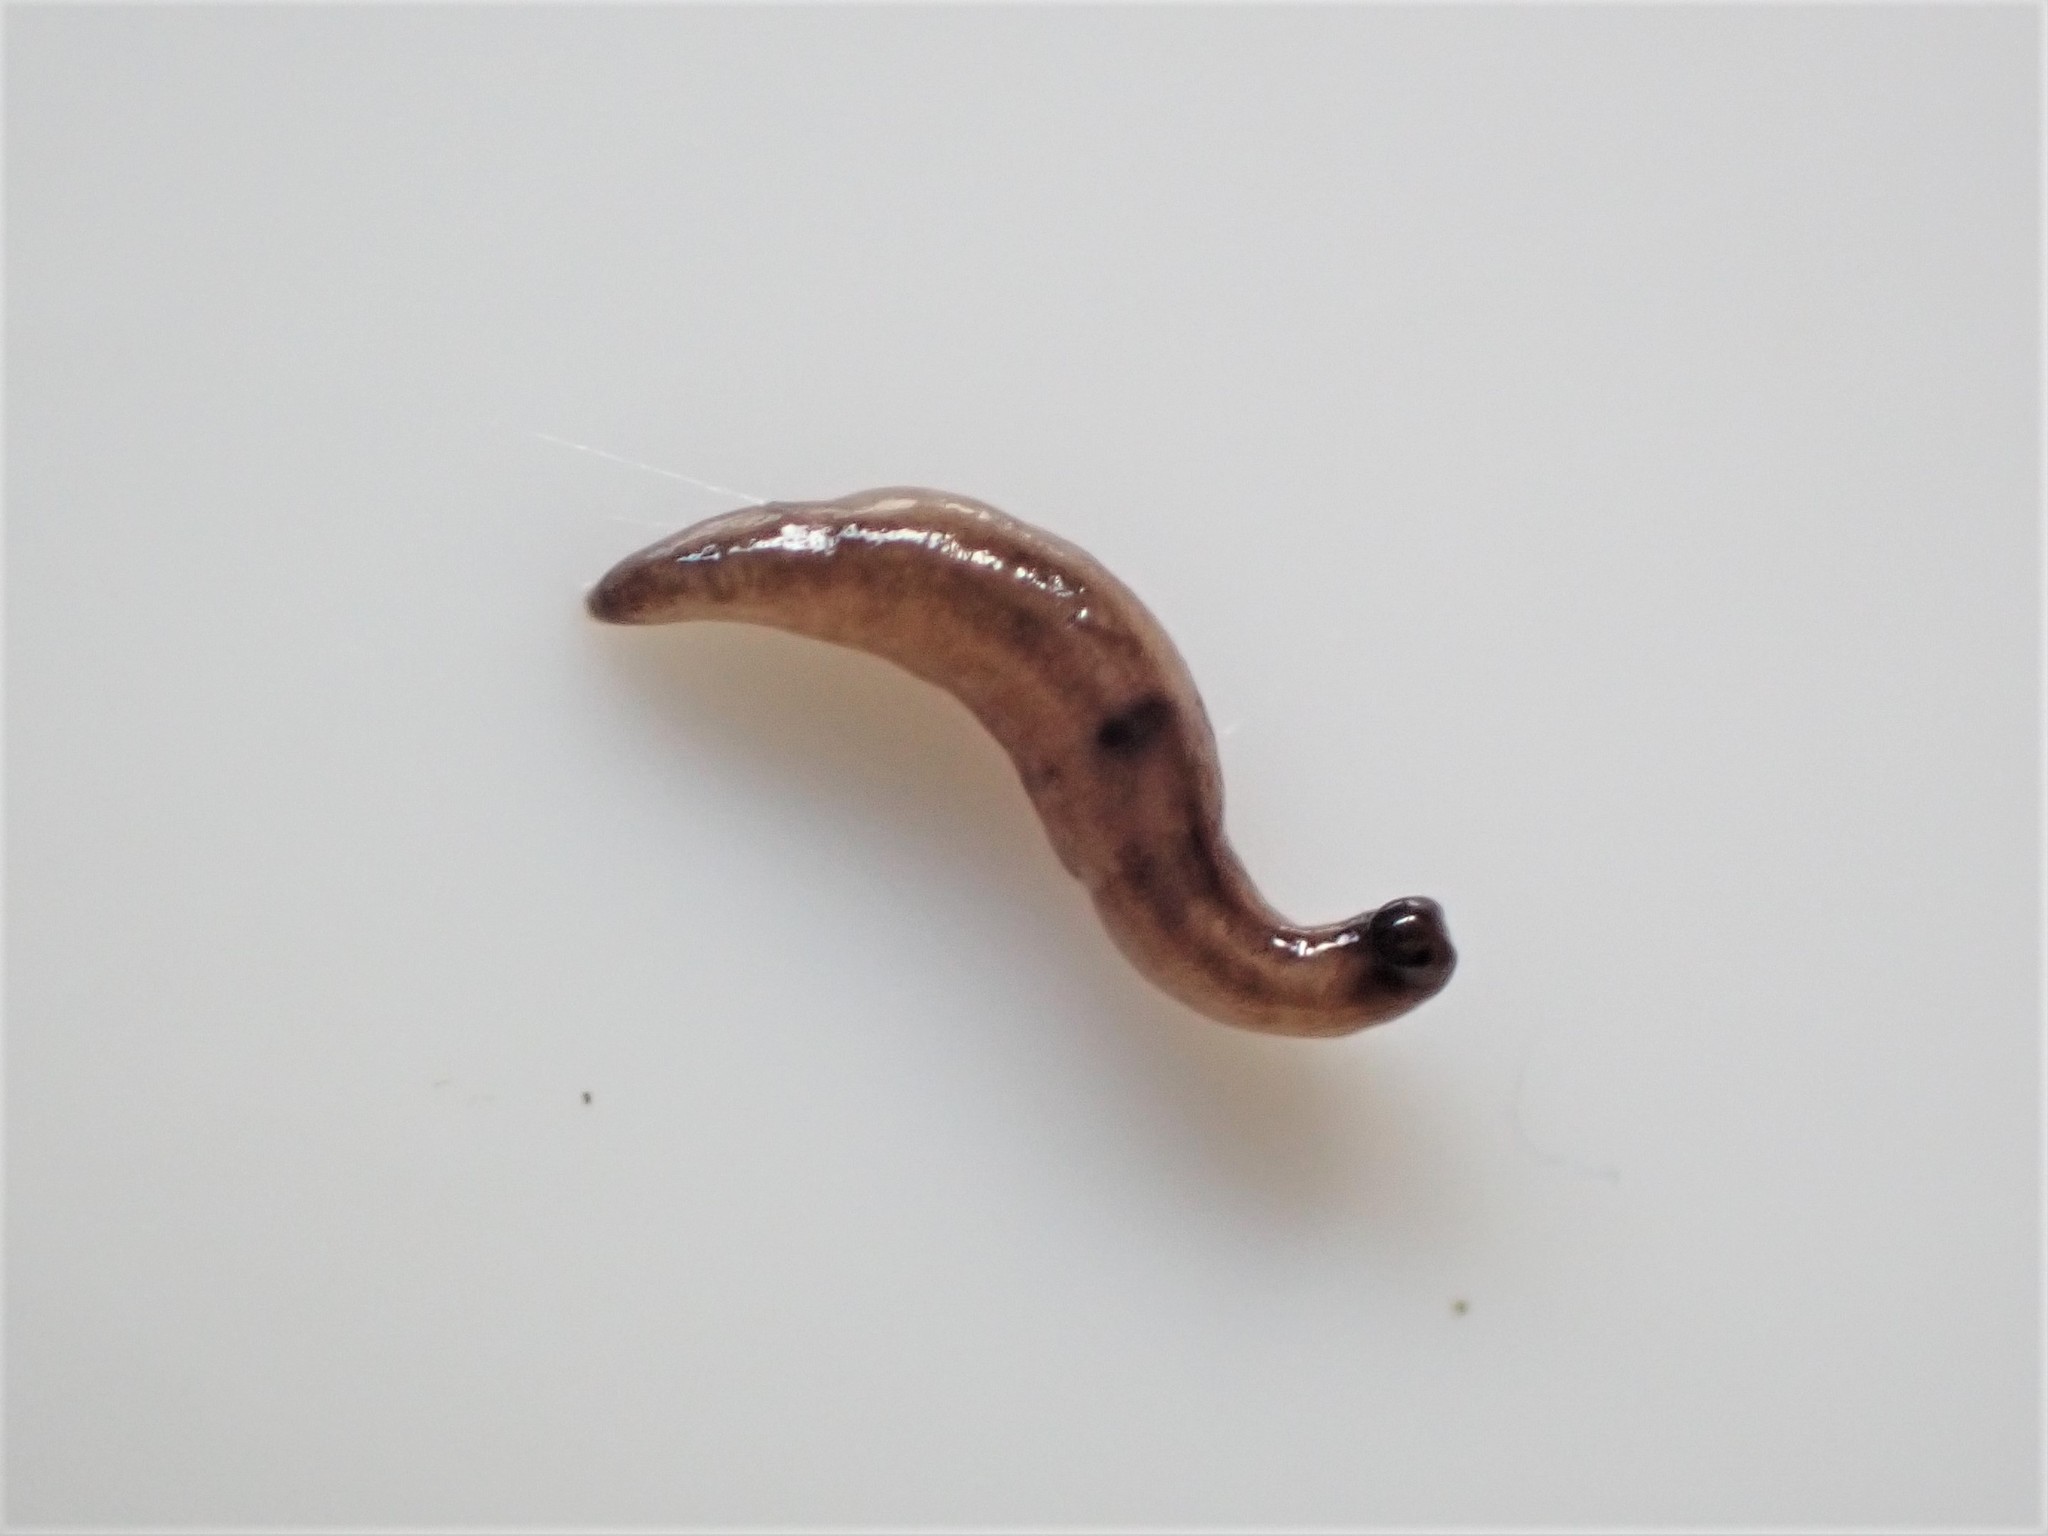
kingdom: Animalia
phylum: Platyhelminthes
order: Tricladida
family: Geoplanidae
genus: Rhynchodemus
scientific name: Rhynchodemus sylvaticus
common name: A flatworm
